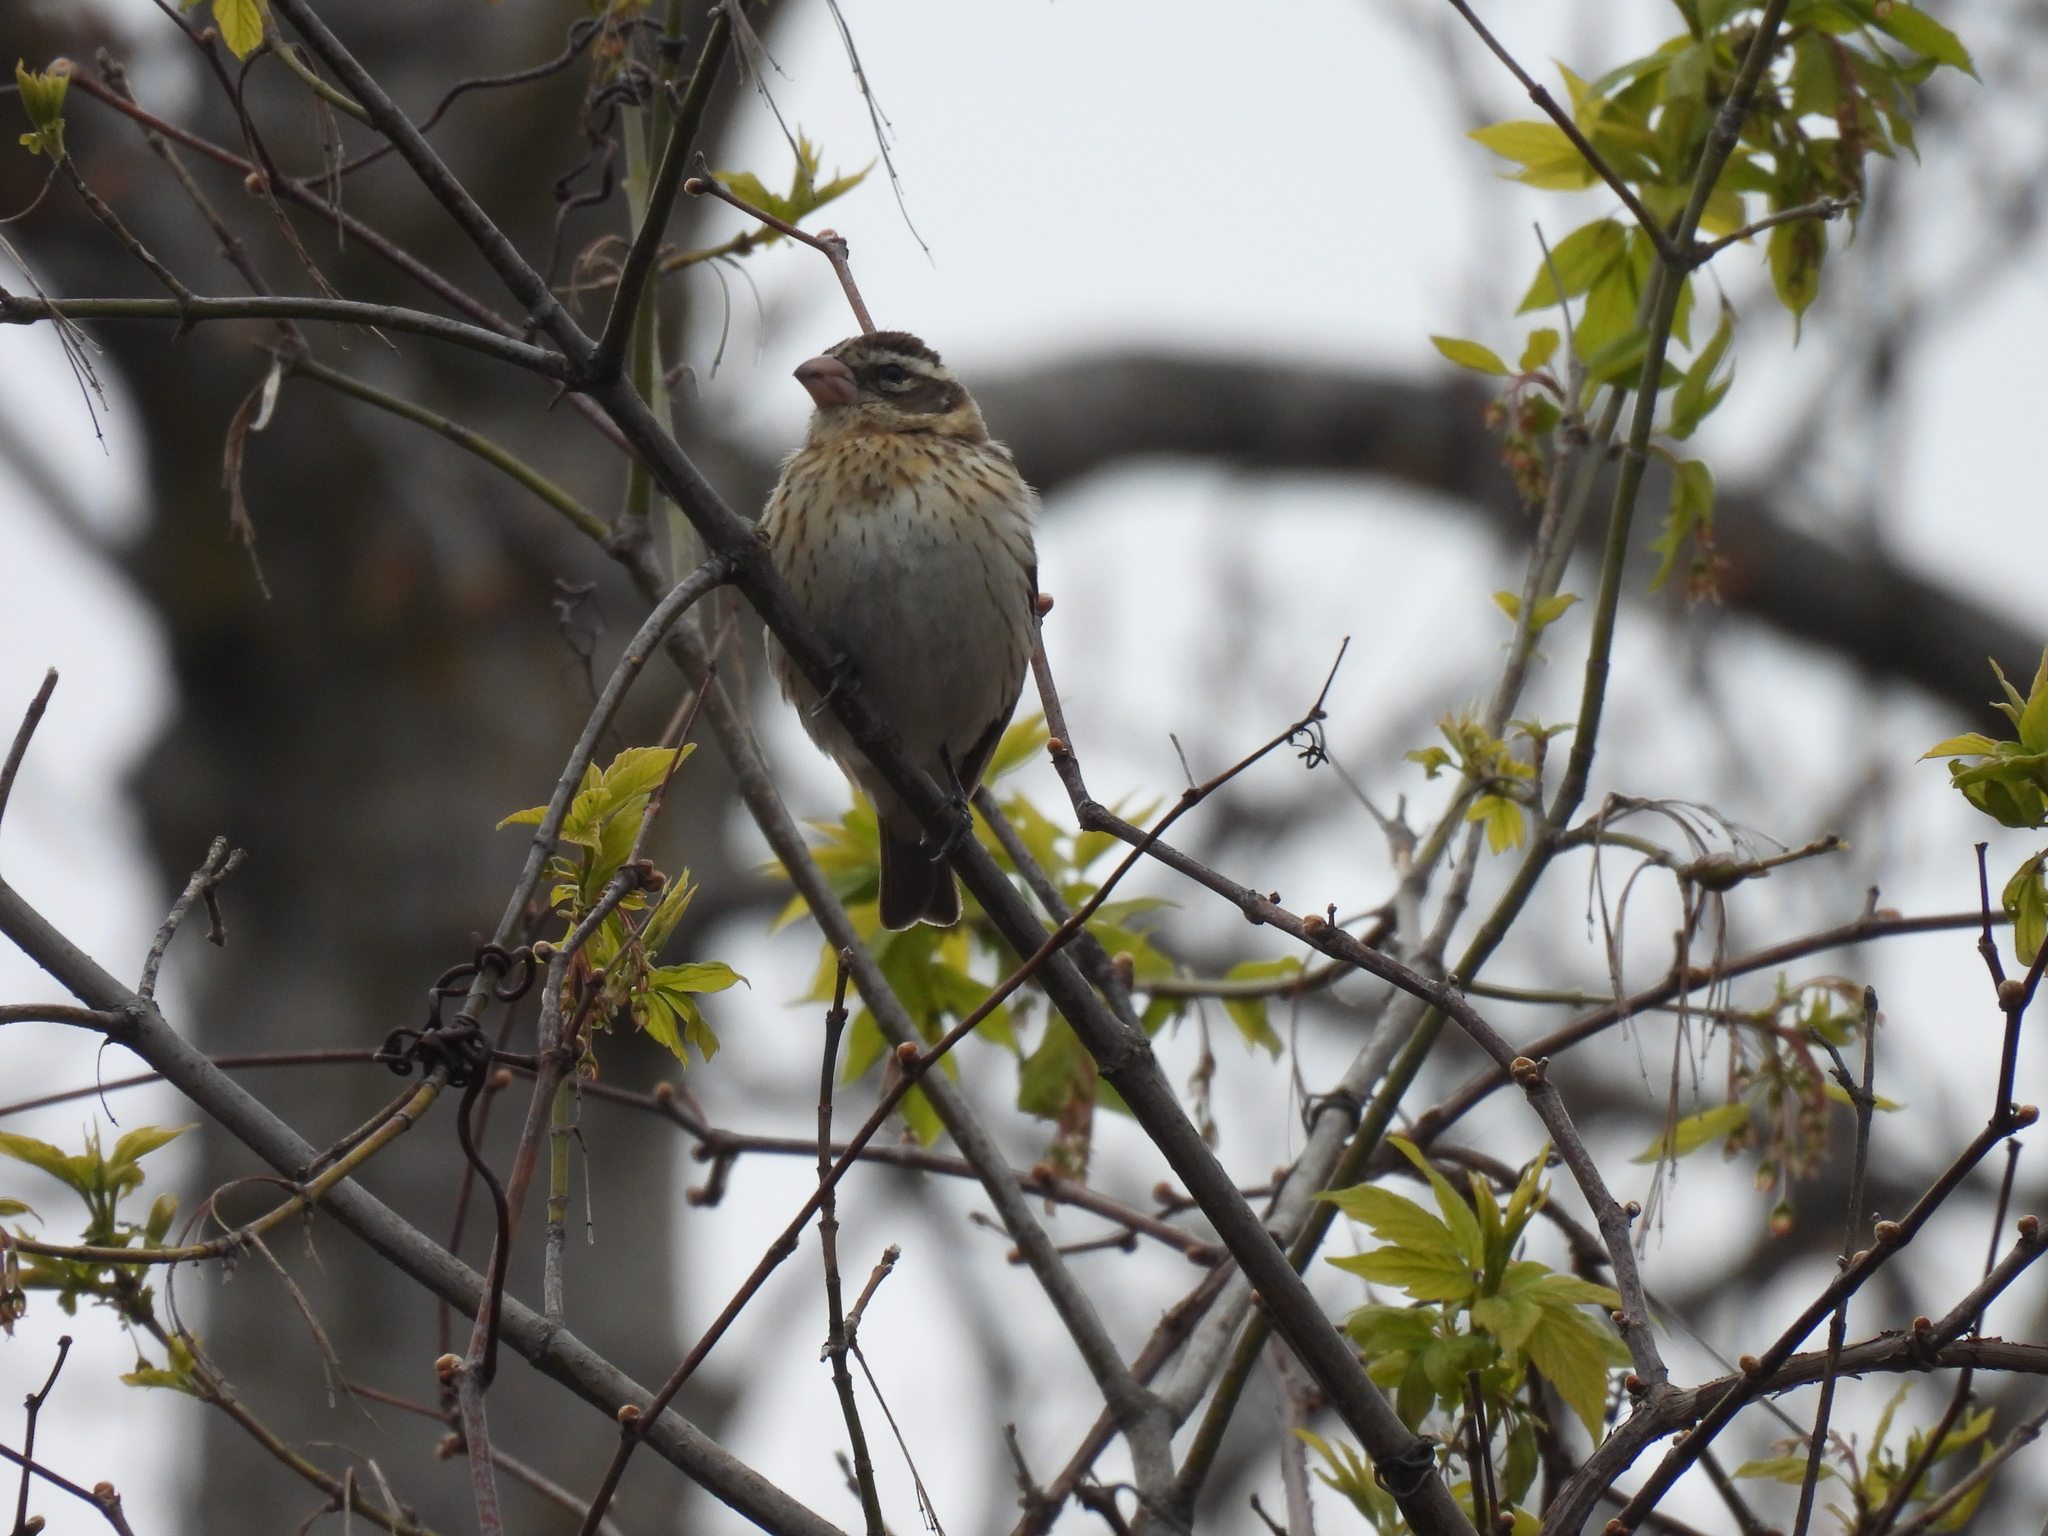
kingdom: Animalia
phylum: Chordata
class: Aves
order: Passeriformes
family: Cardinalidae
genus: Pheucticus
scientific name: Pheucticus ludovicianus
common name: Rose-breasted grosbeak
